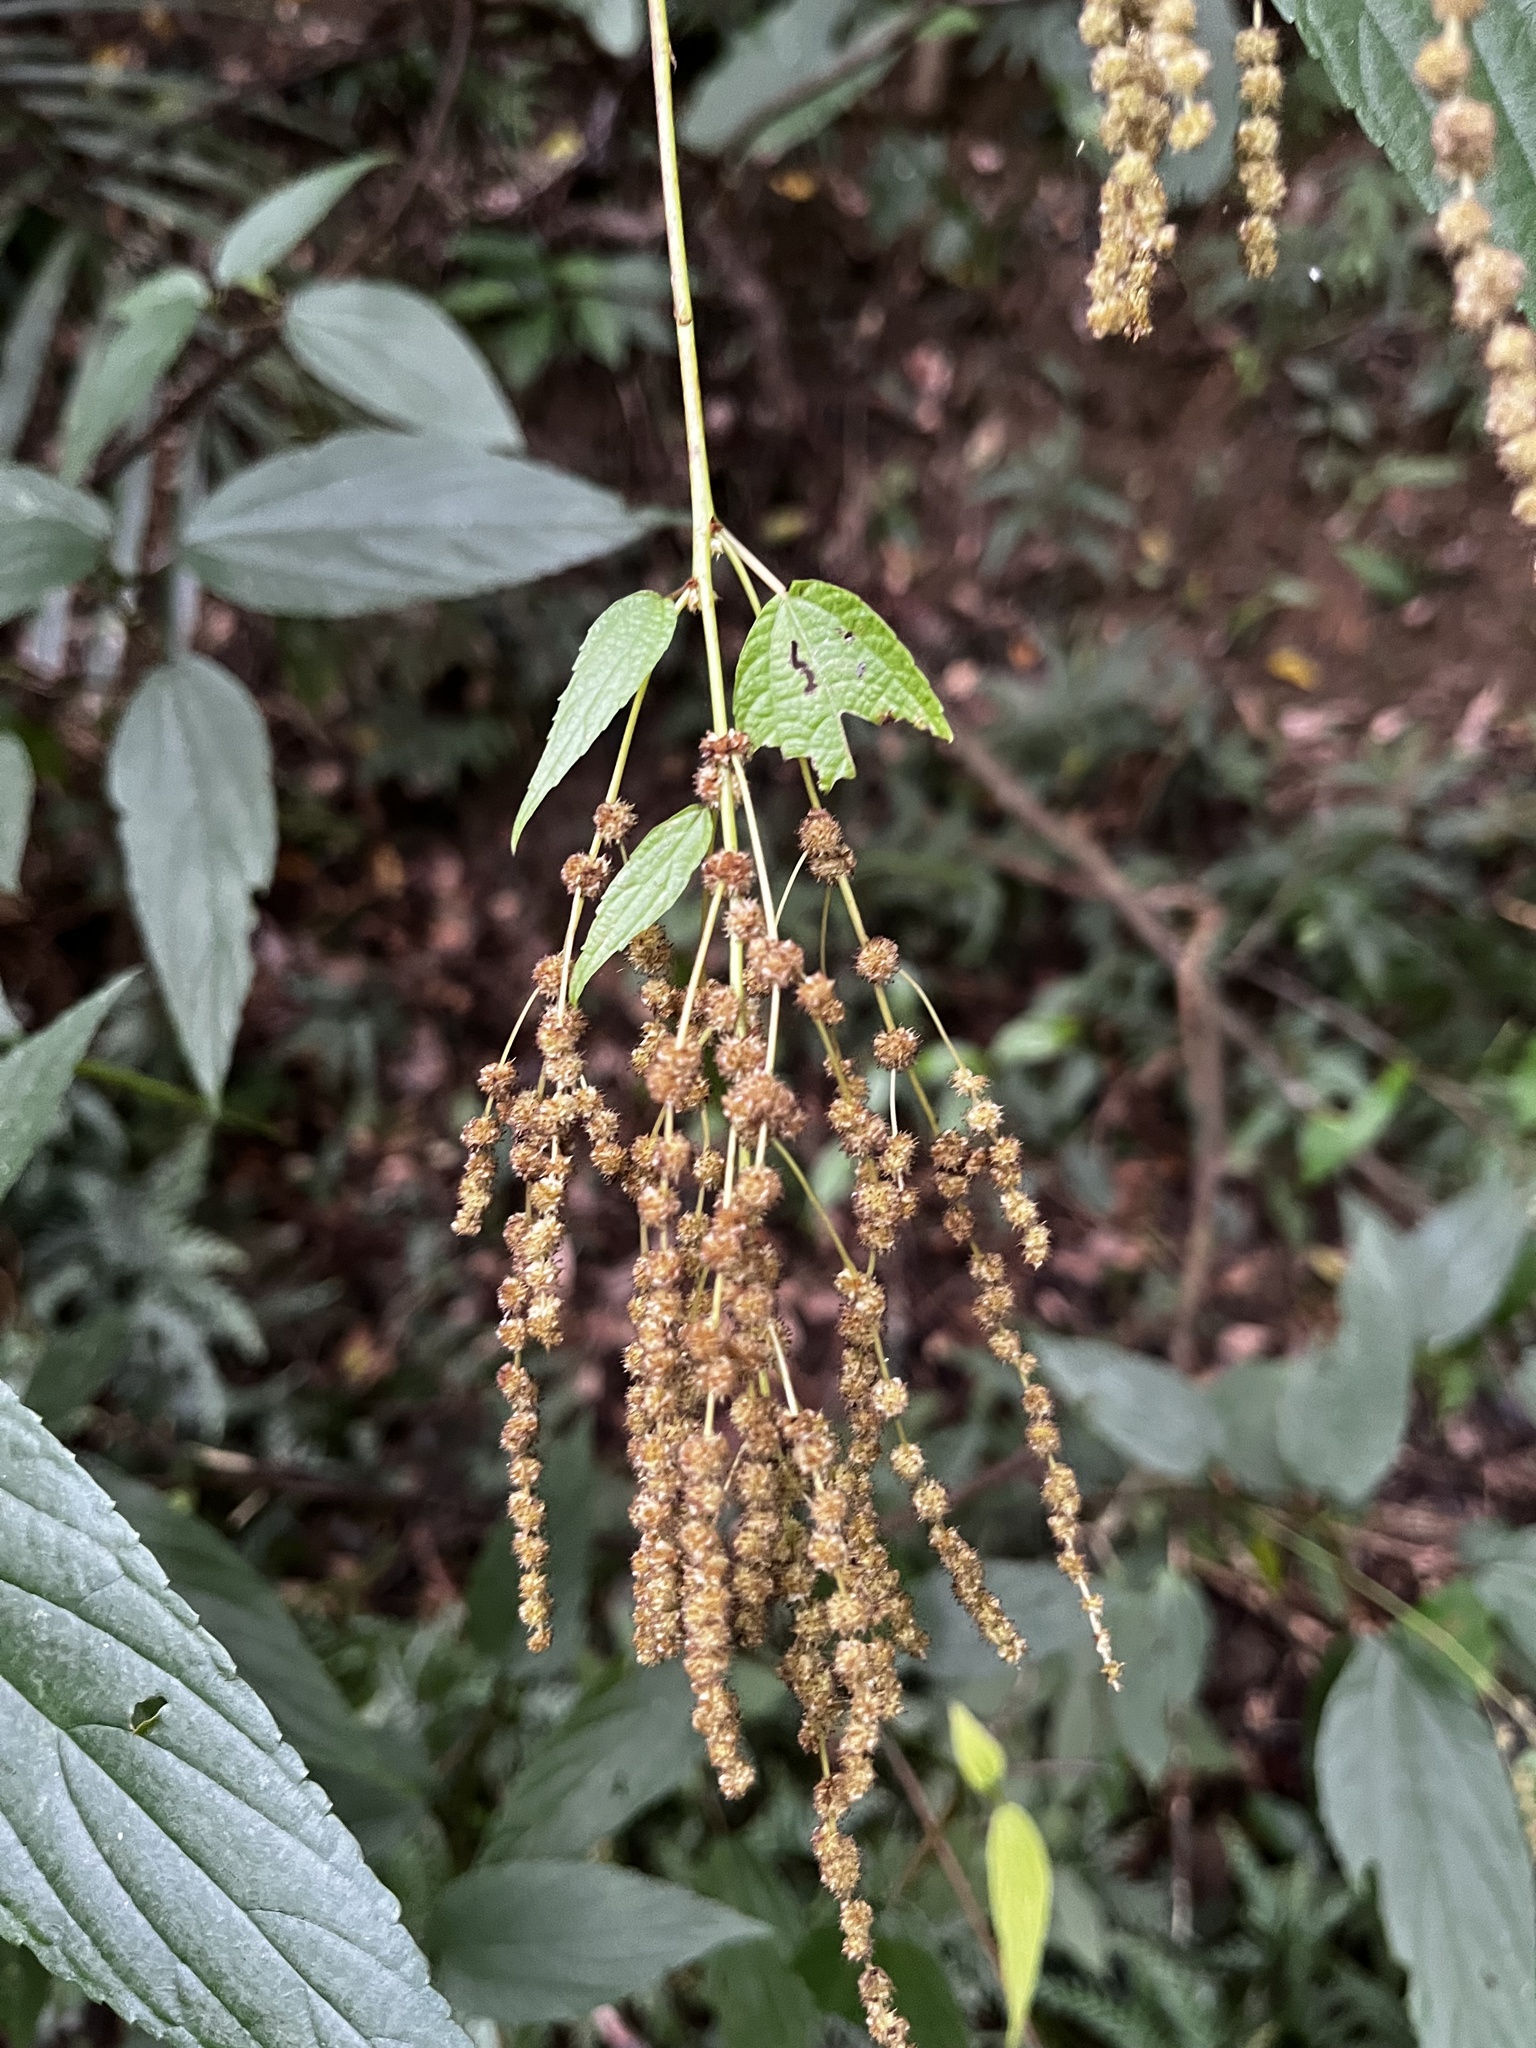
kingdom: Plantae
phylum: Tracheophyta
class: Magnoliopsida
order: Rosales
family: Urticaceae
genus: Boehmeria
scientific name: Boehmeria zollingeriana
